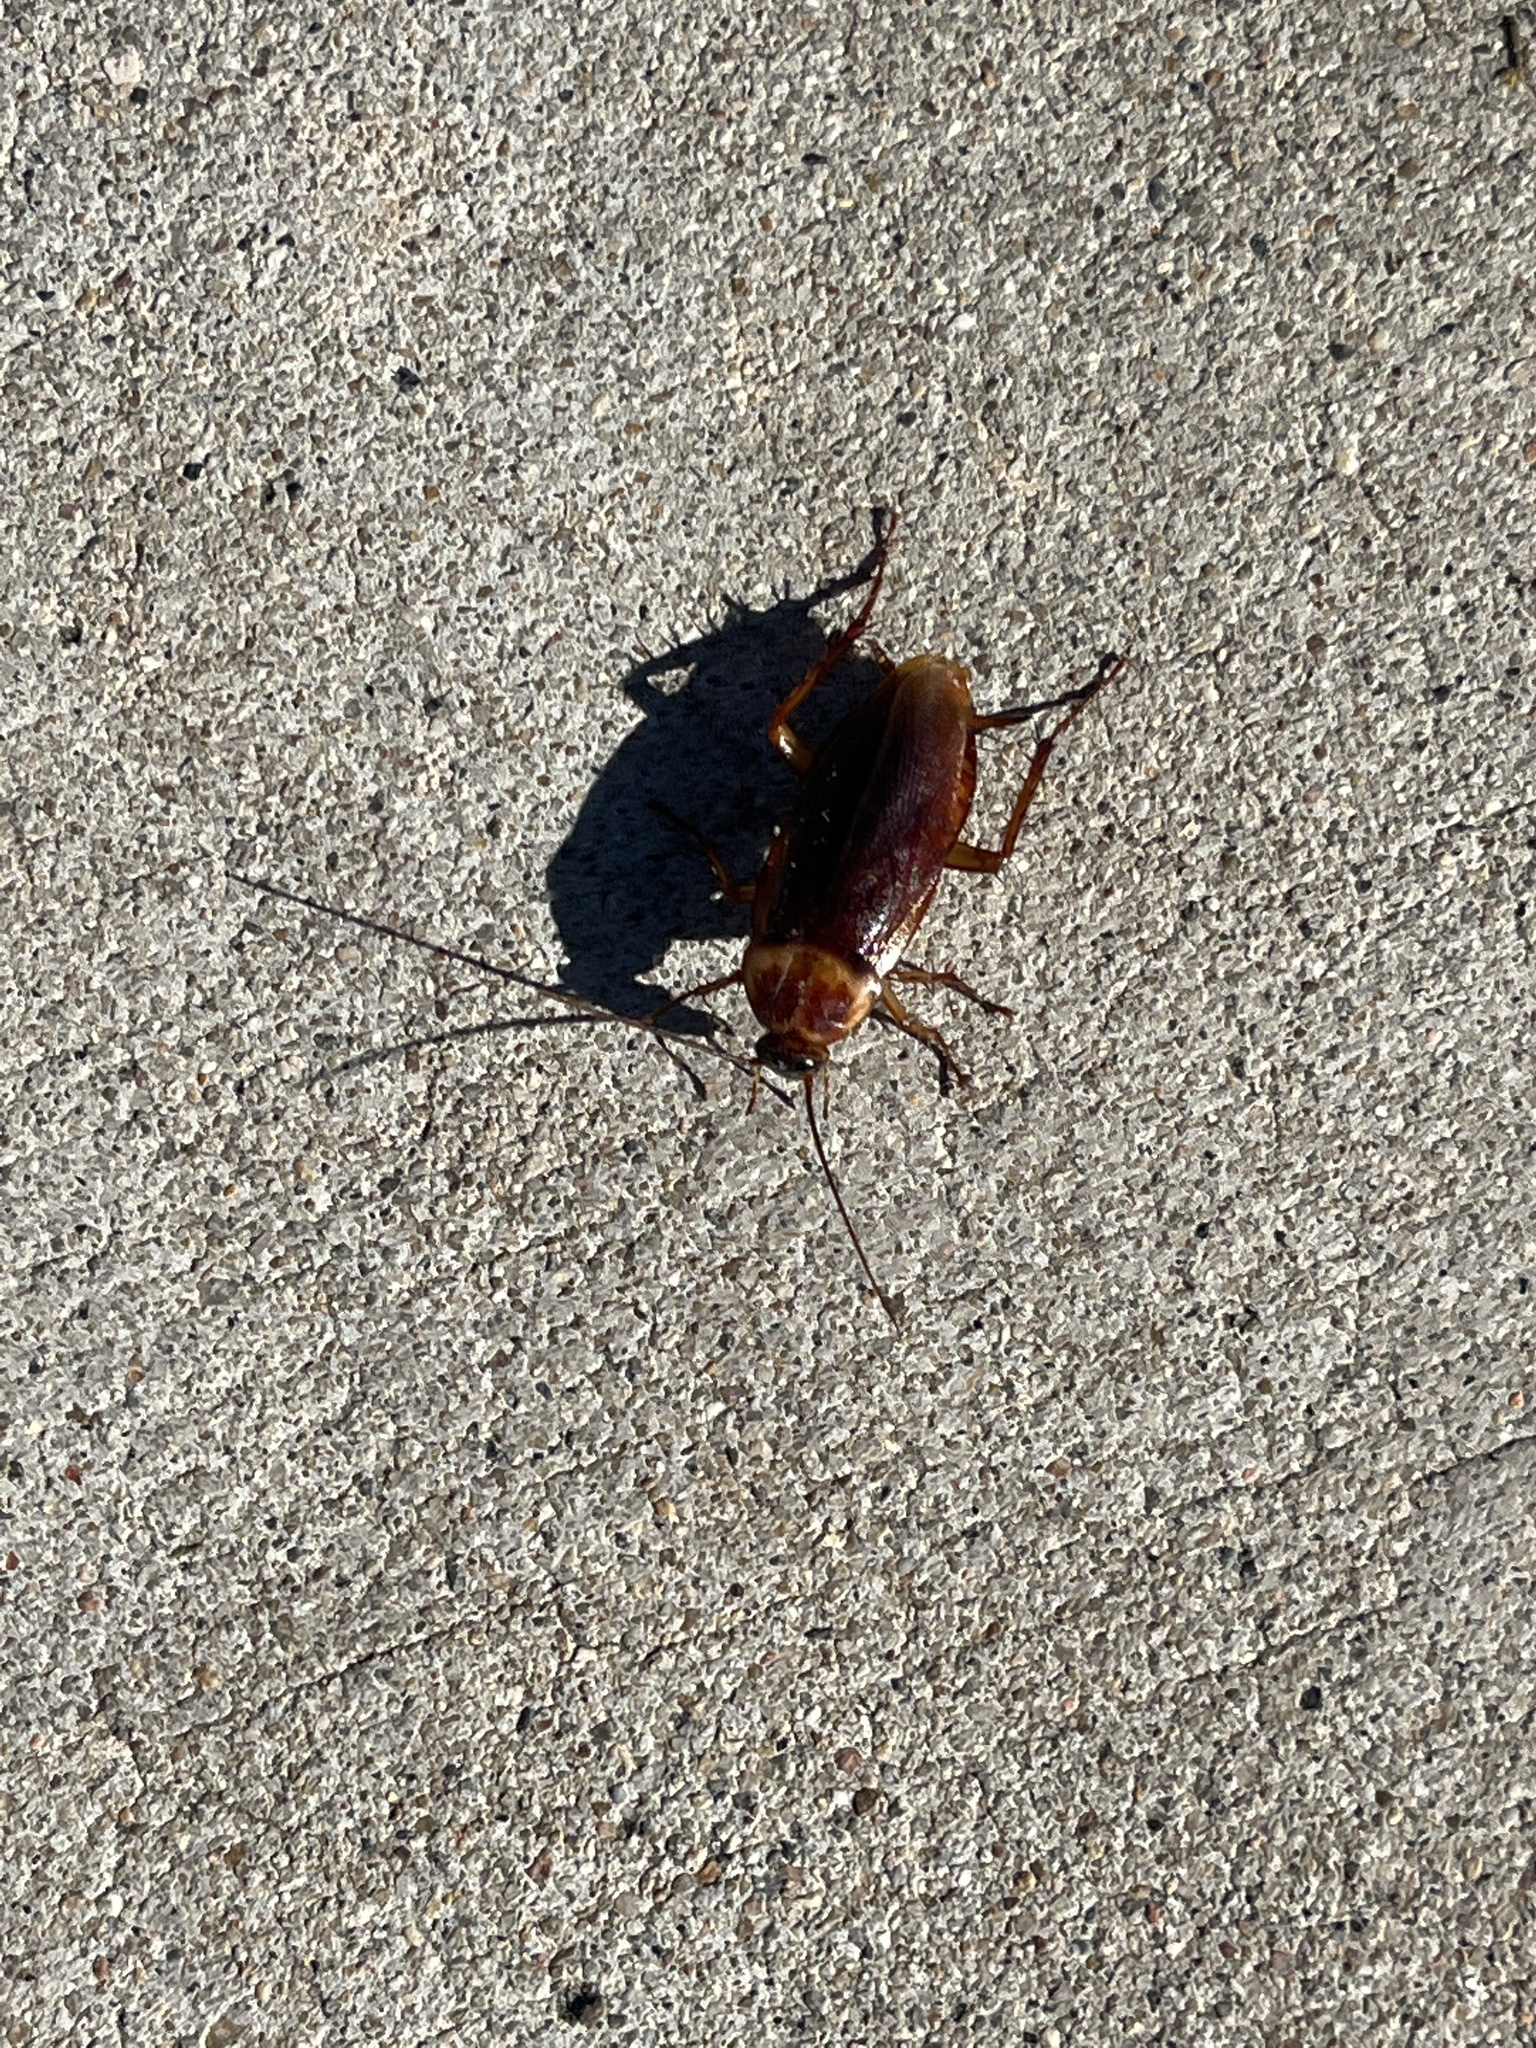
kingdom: Animalia
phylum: Arthropoda
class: Insecta
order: Blattodea
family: Blattidae
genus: Periplaneta
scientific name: Periplaneta americana
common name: American cockroach
